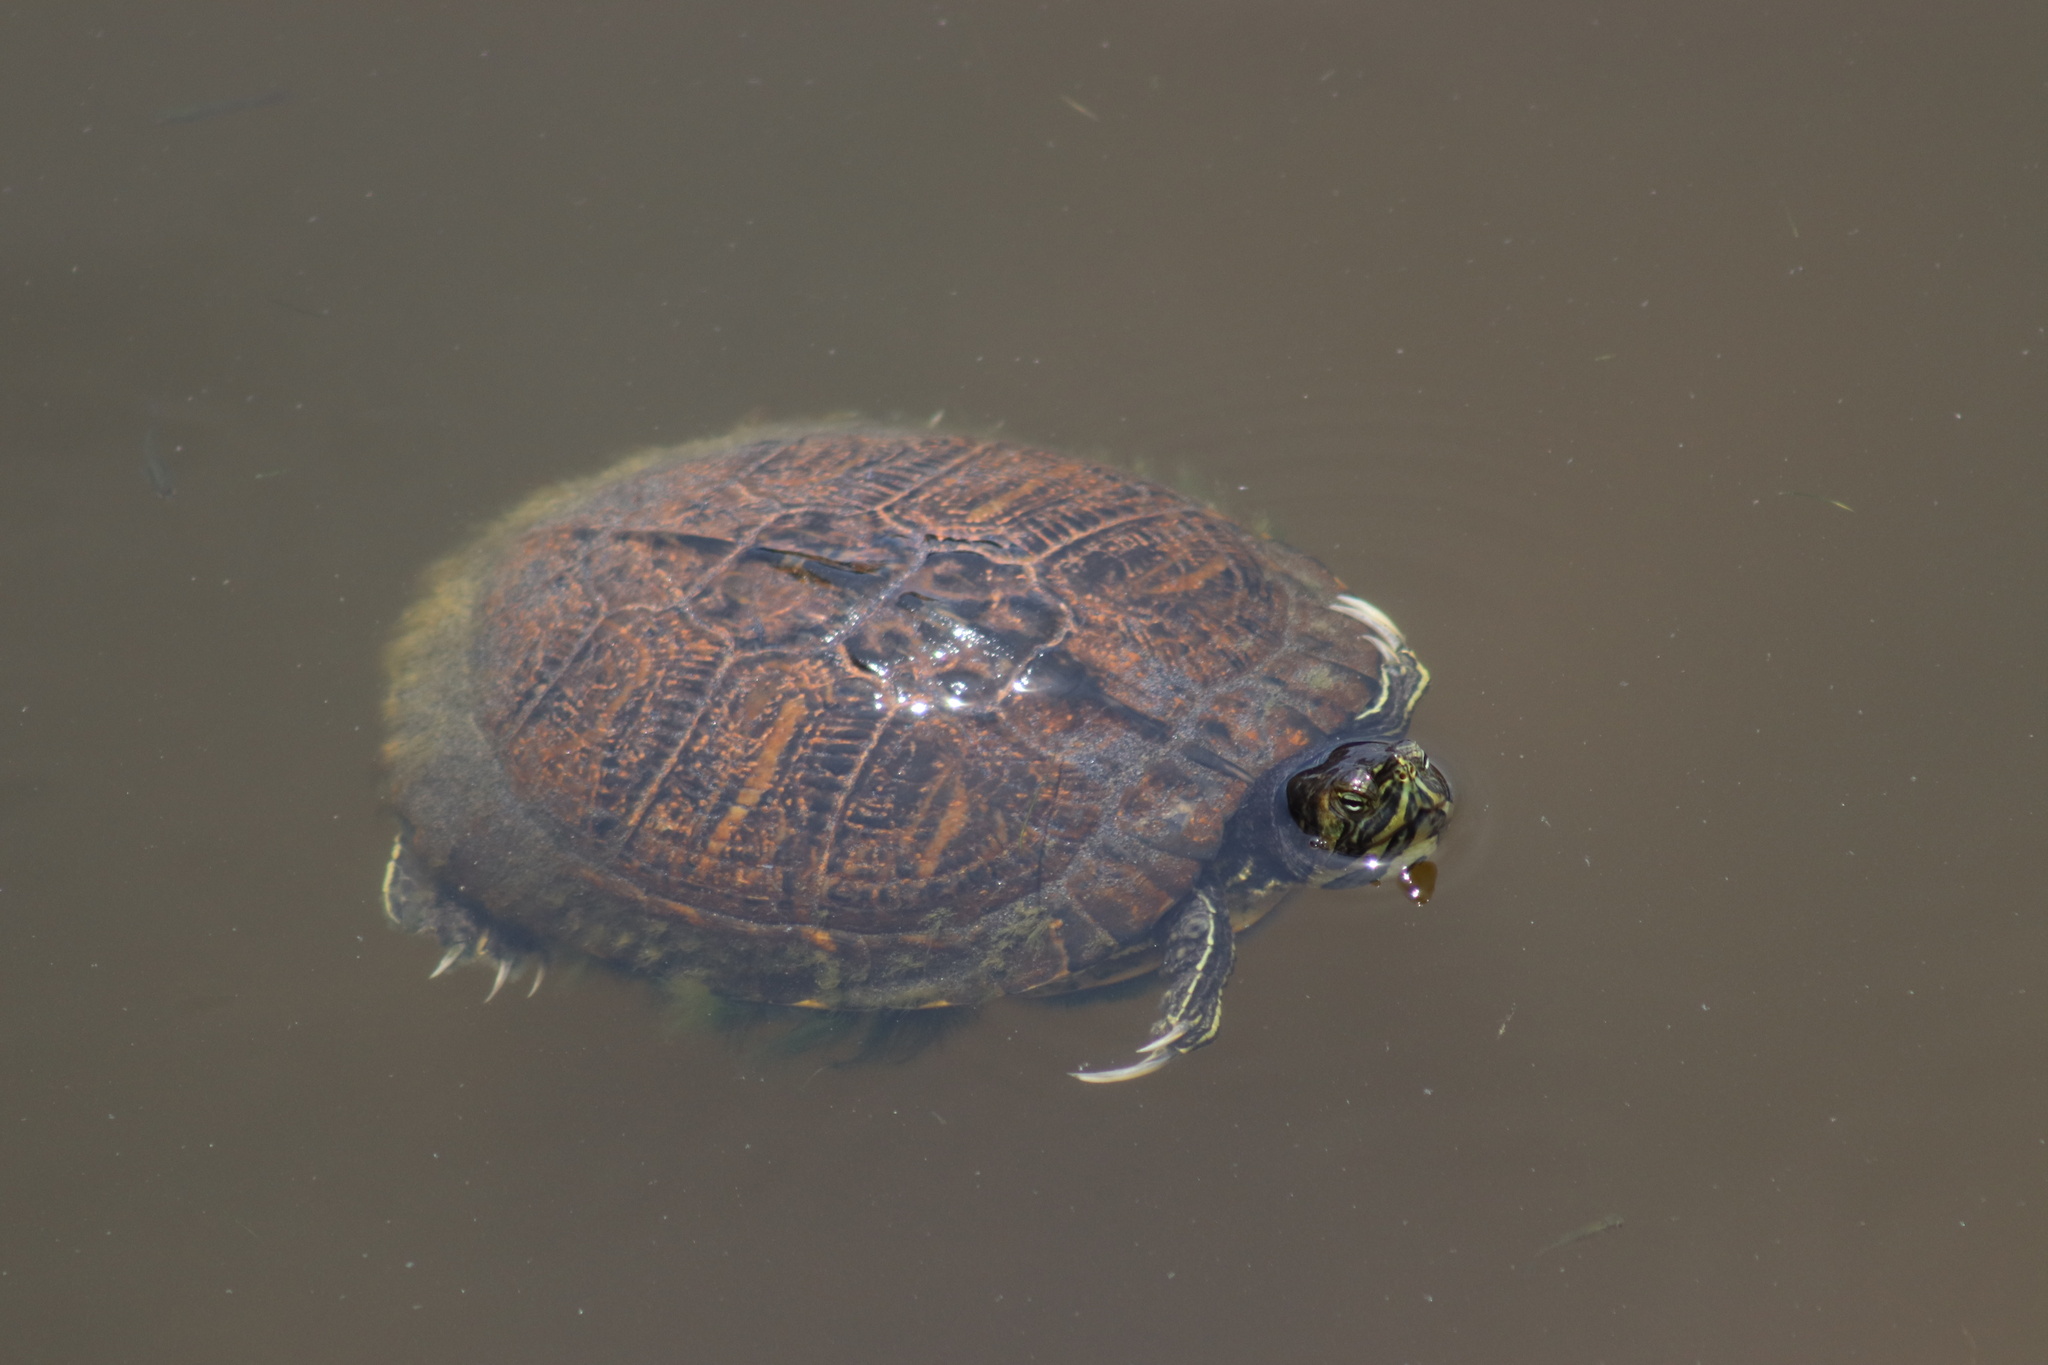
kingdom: Animalia
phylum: Chordata
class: Testudines
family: Emydidae
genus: Trachemys
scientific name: Trachemys scripta
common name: Slider
